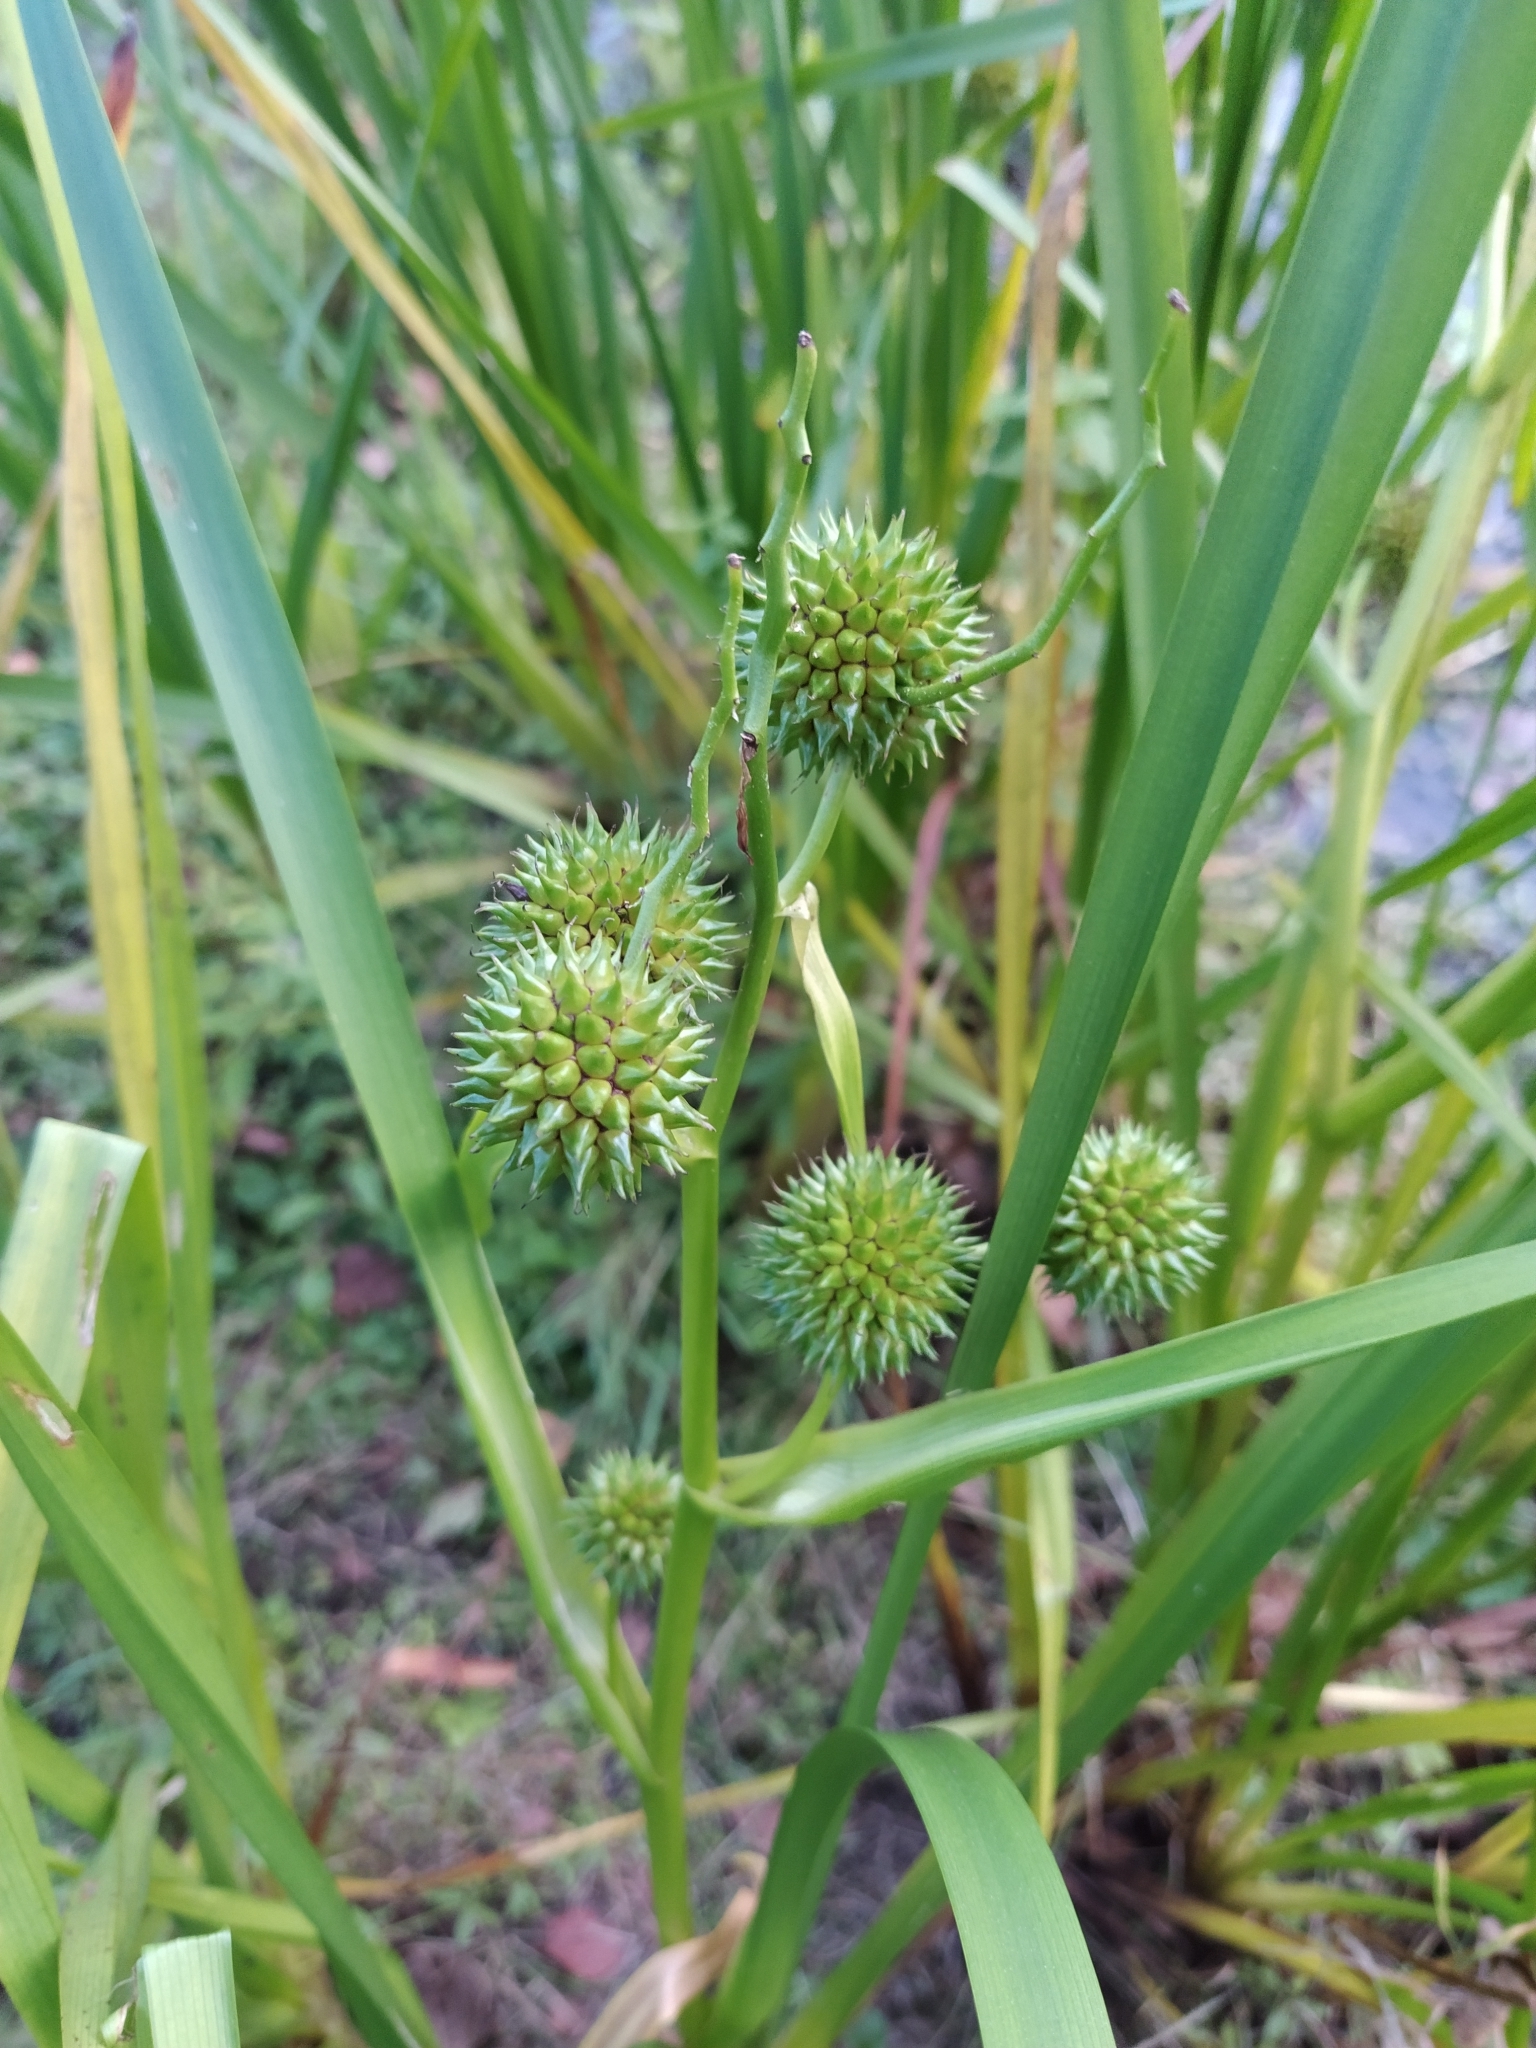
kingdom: Plantae
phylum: Tracheophyta
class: Liliopsida
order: Poales
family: Typhaceae
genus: Sparganium
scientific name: Sparganium erectum
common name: Branched bur-reed
